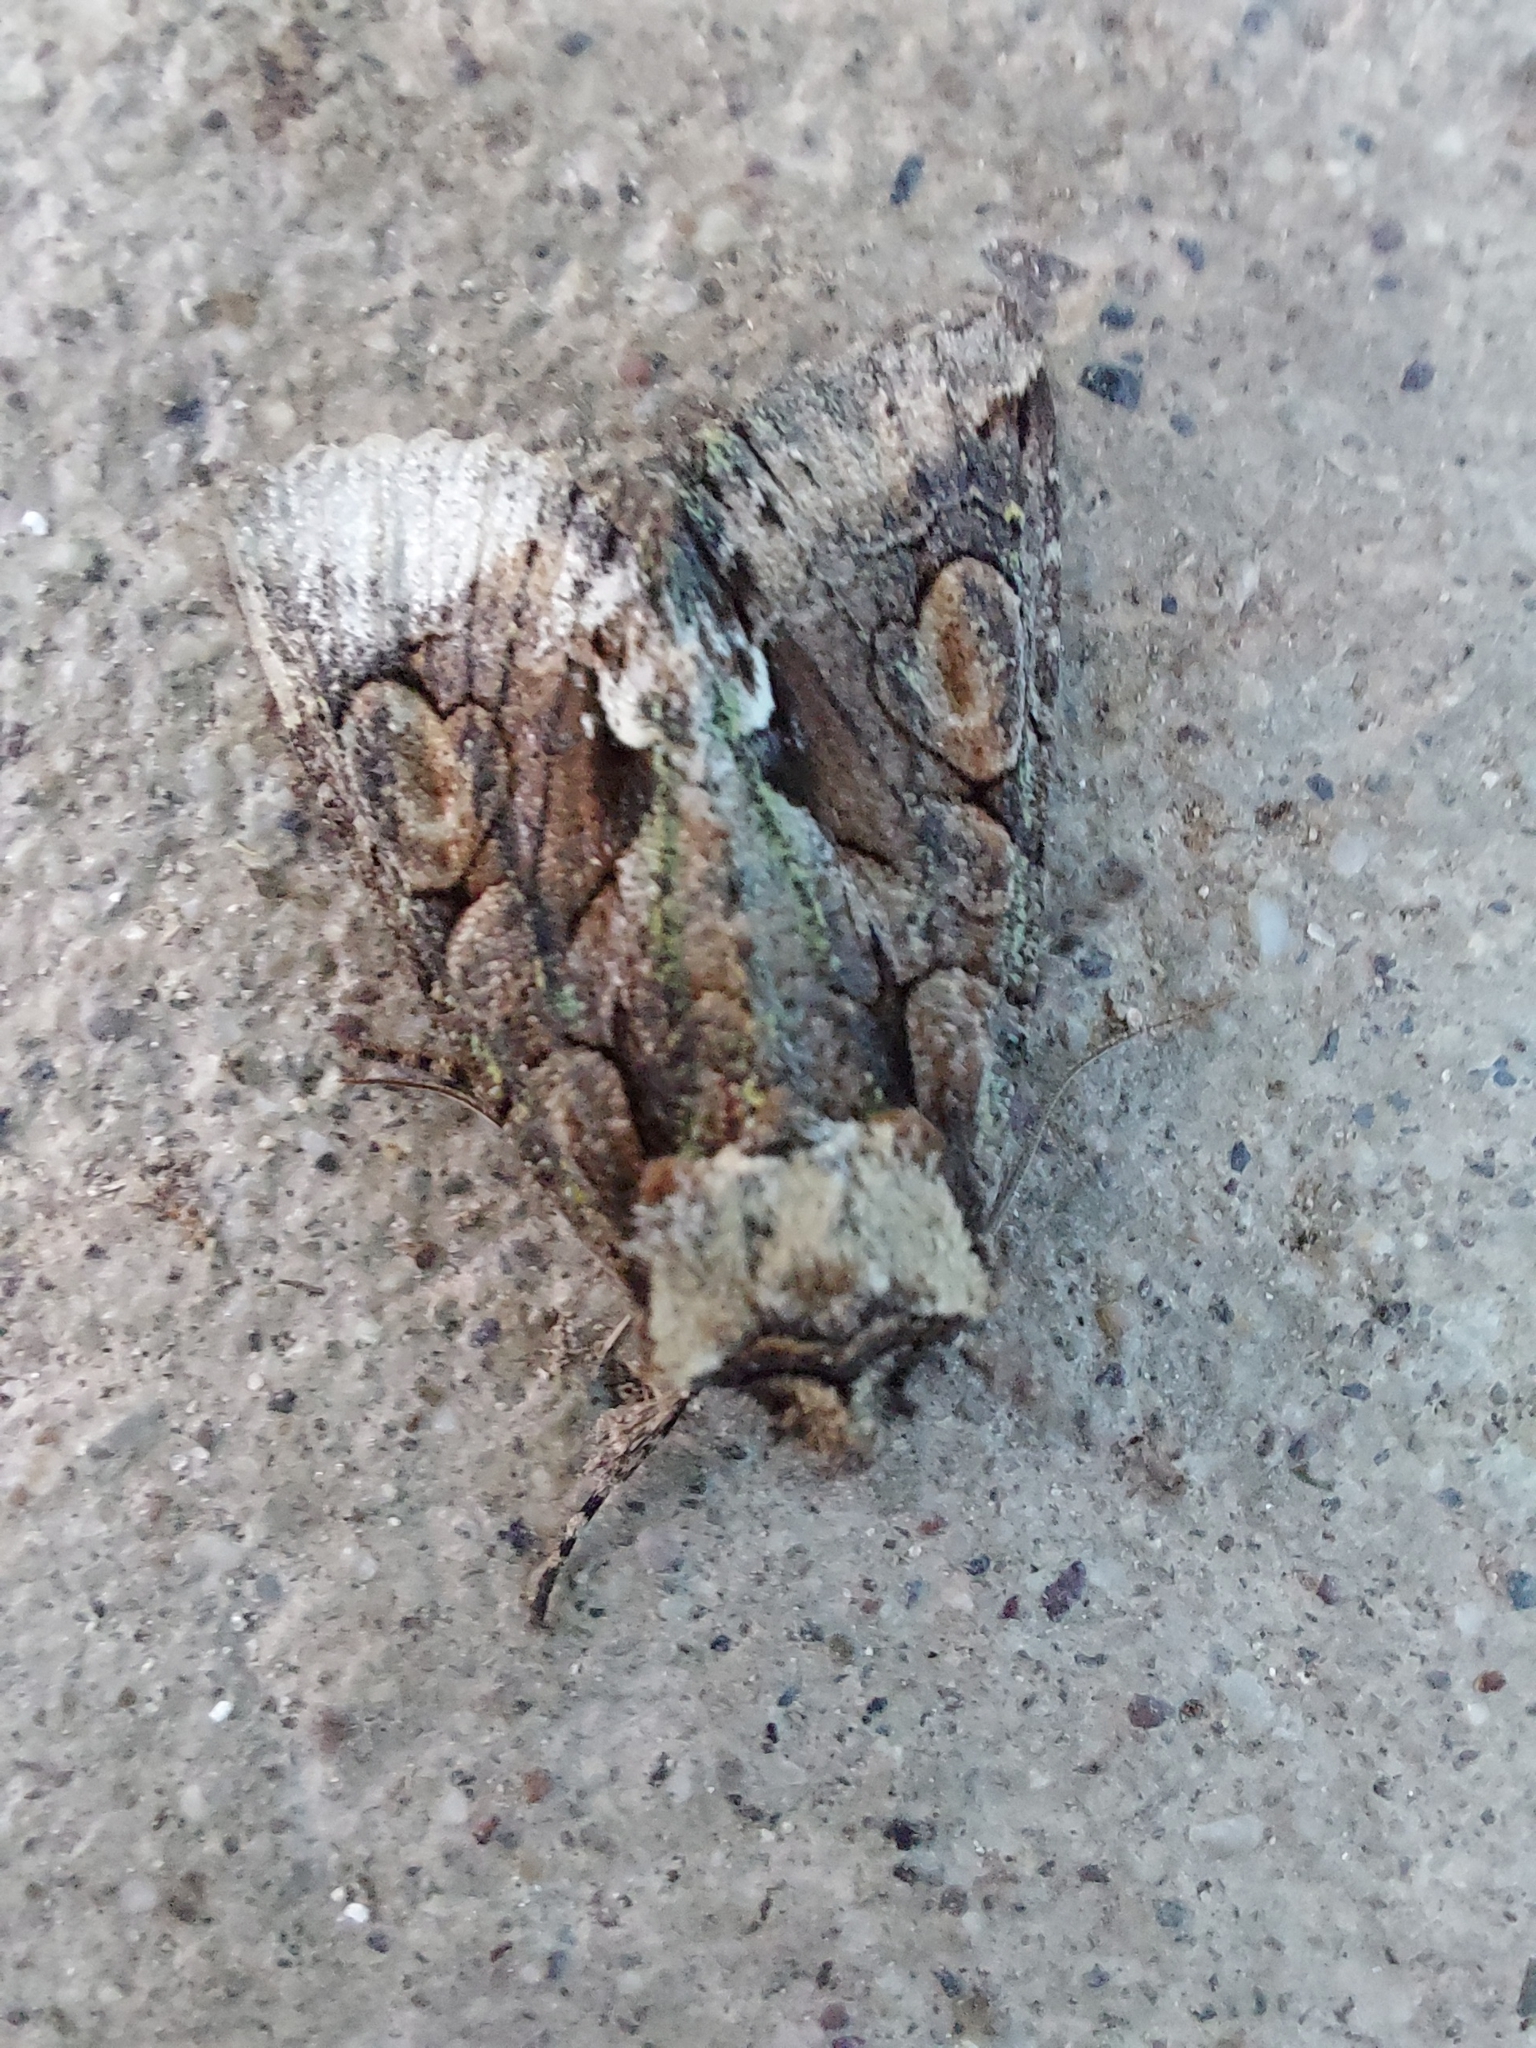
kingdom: Animalia
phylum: Arthropoda
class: Insecta
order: Lepidoptera
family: Noctuidae
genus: Allophyes
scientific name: Allophyes oxyacanthae
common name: Green-brindled crescent
